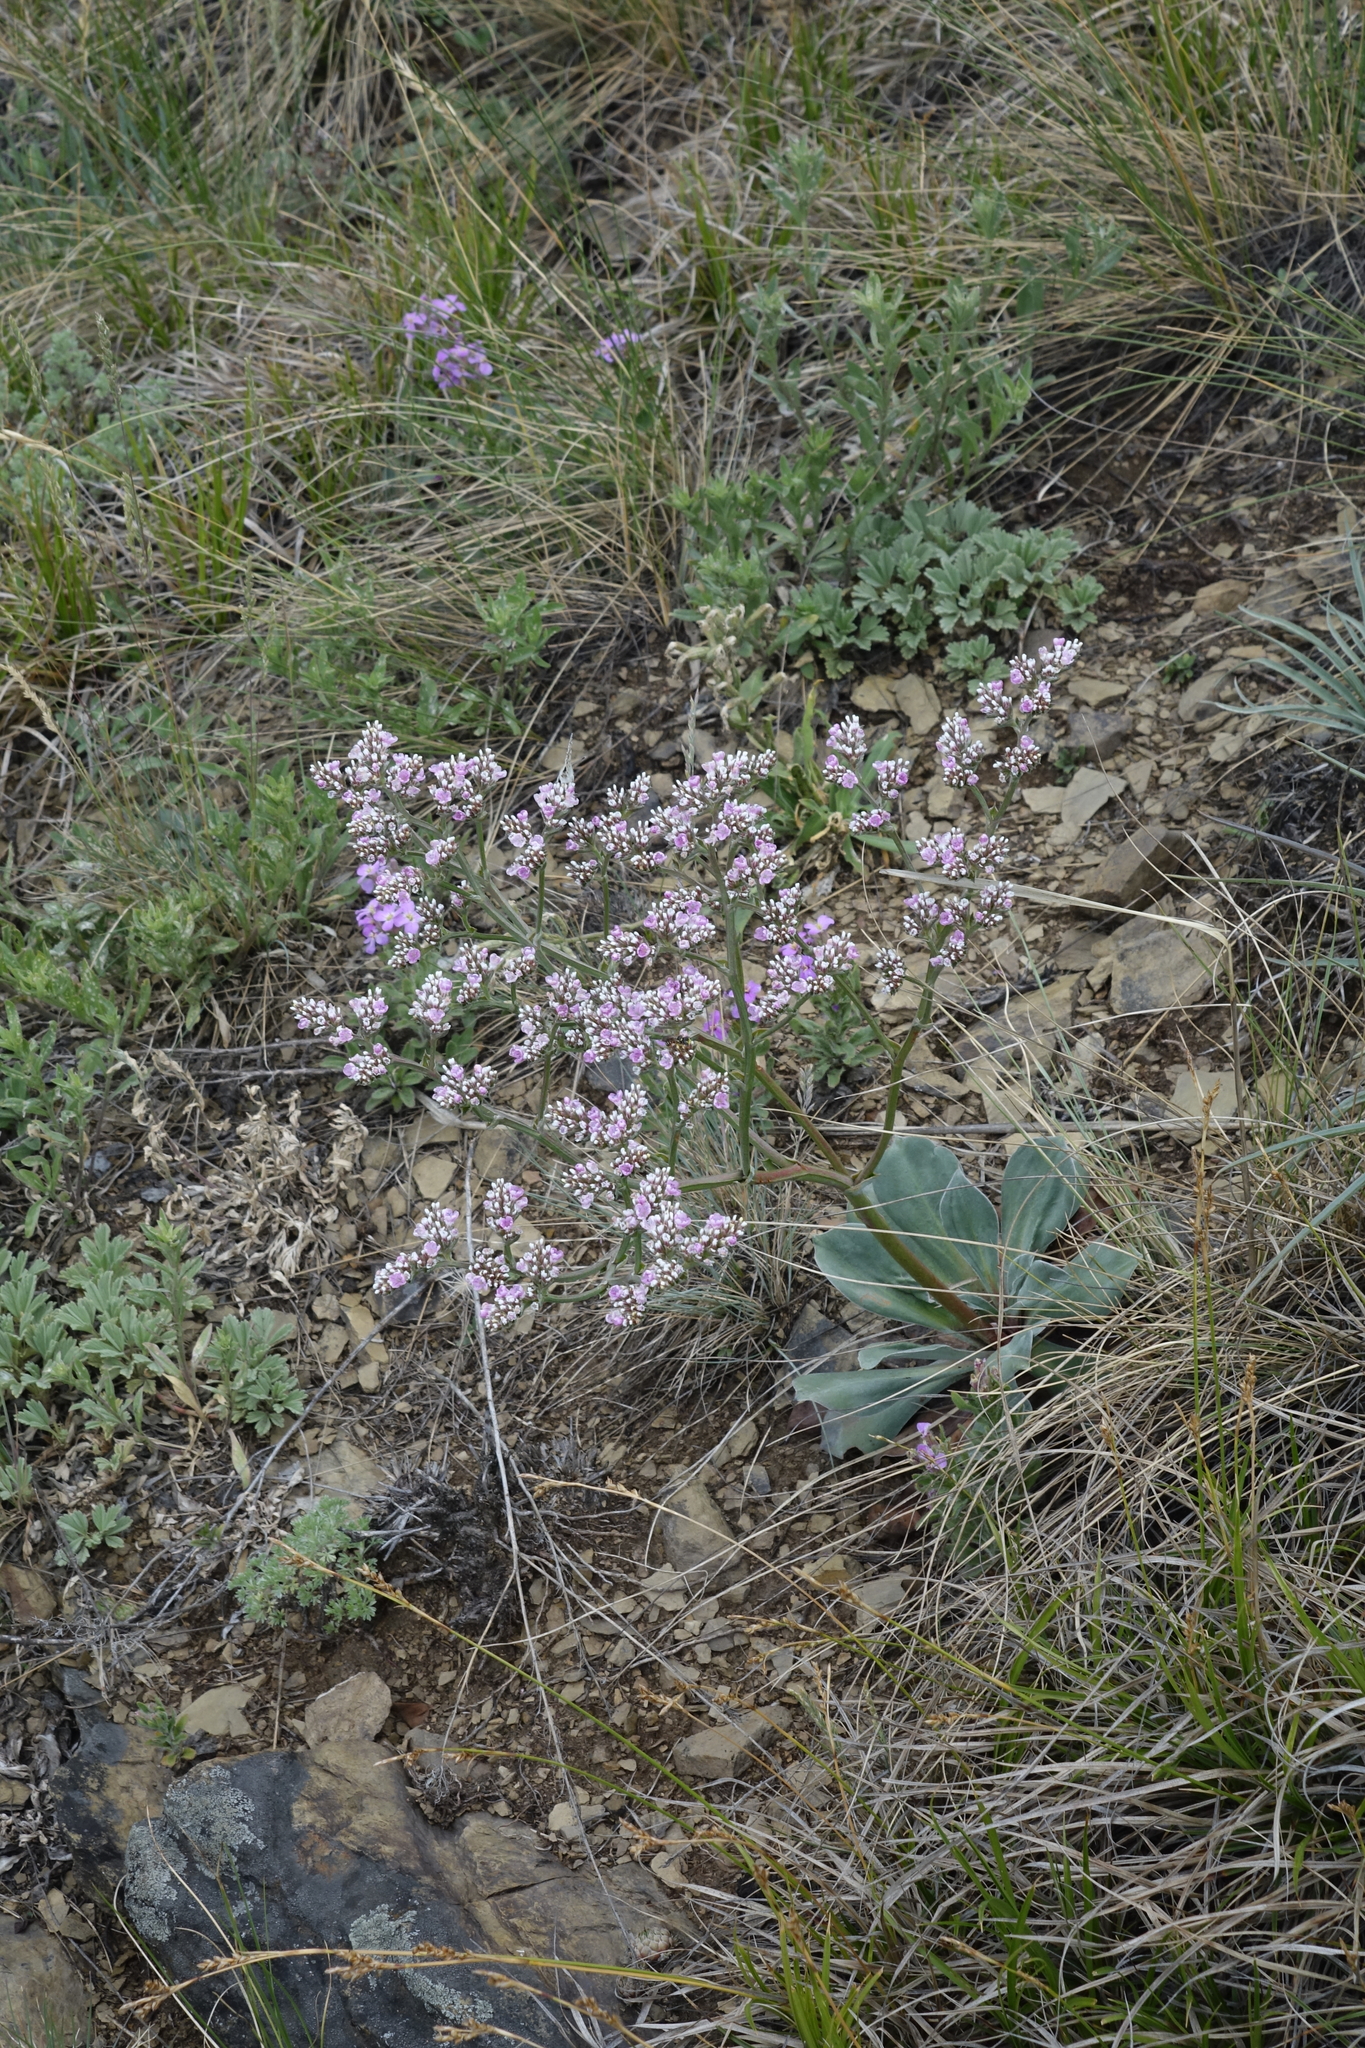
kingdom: Plantae
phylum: Tracheophyta
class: Magnoliopsida
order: Caryophyllales
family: Plumbaginaceae
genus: Goniolimon
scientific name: Goniolimon speciosum
